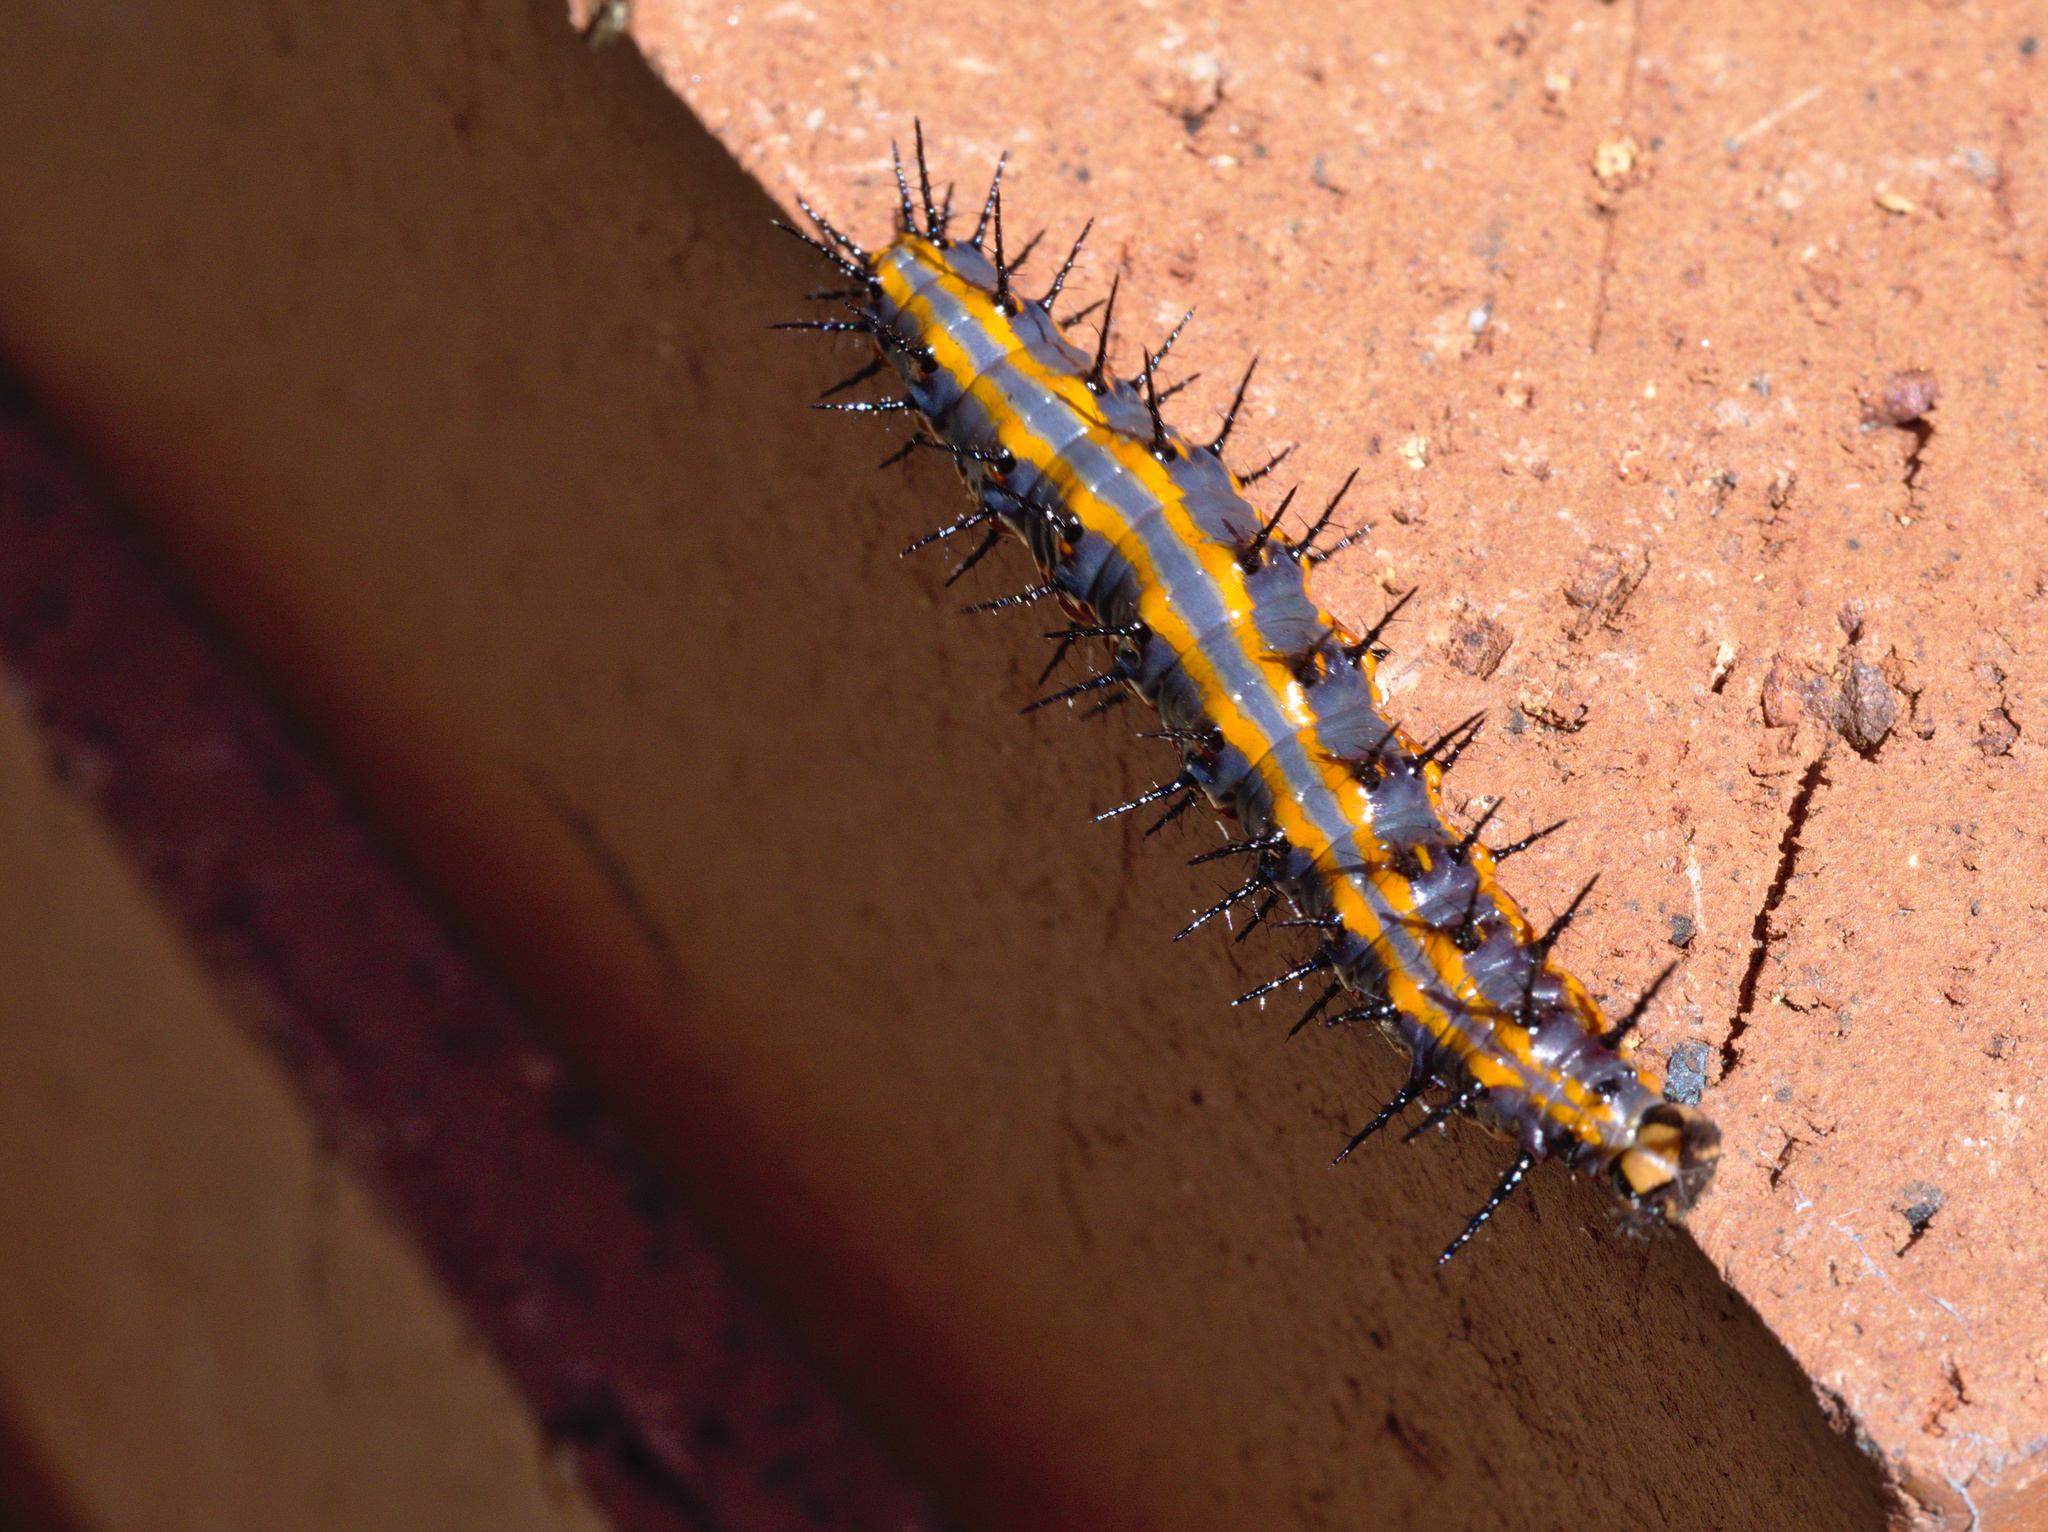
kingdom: Animalia
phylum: Arthropoda
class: Insecta
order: Lepidoptera
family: Nymphalidae
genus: Dione
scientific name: Dione vanillae
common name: Gulf fritillary
